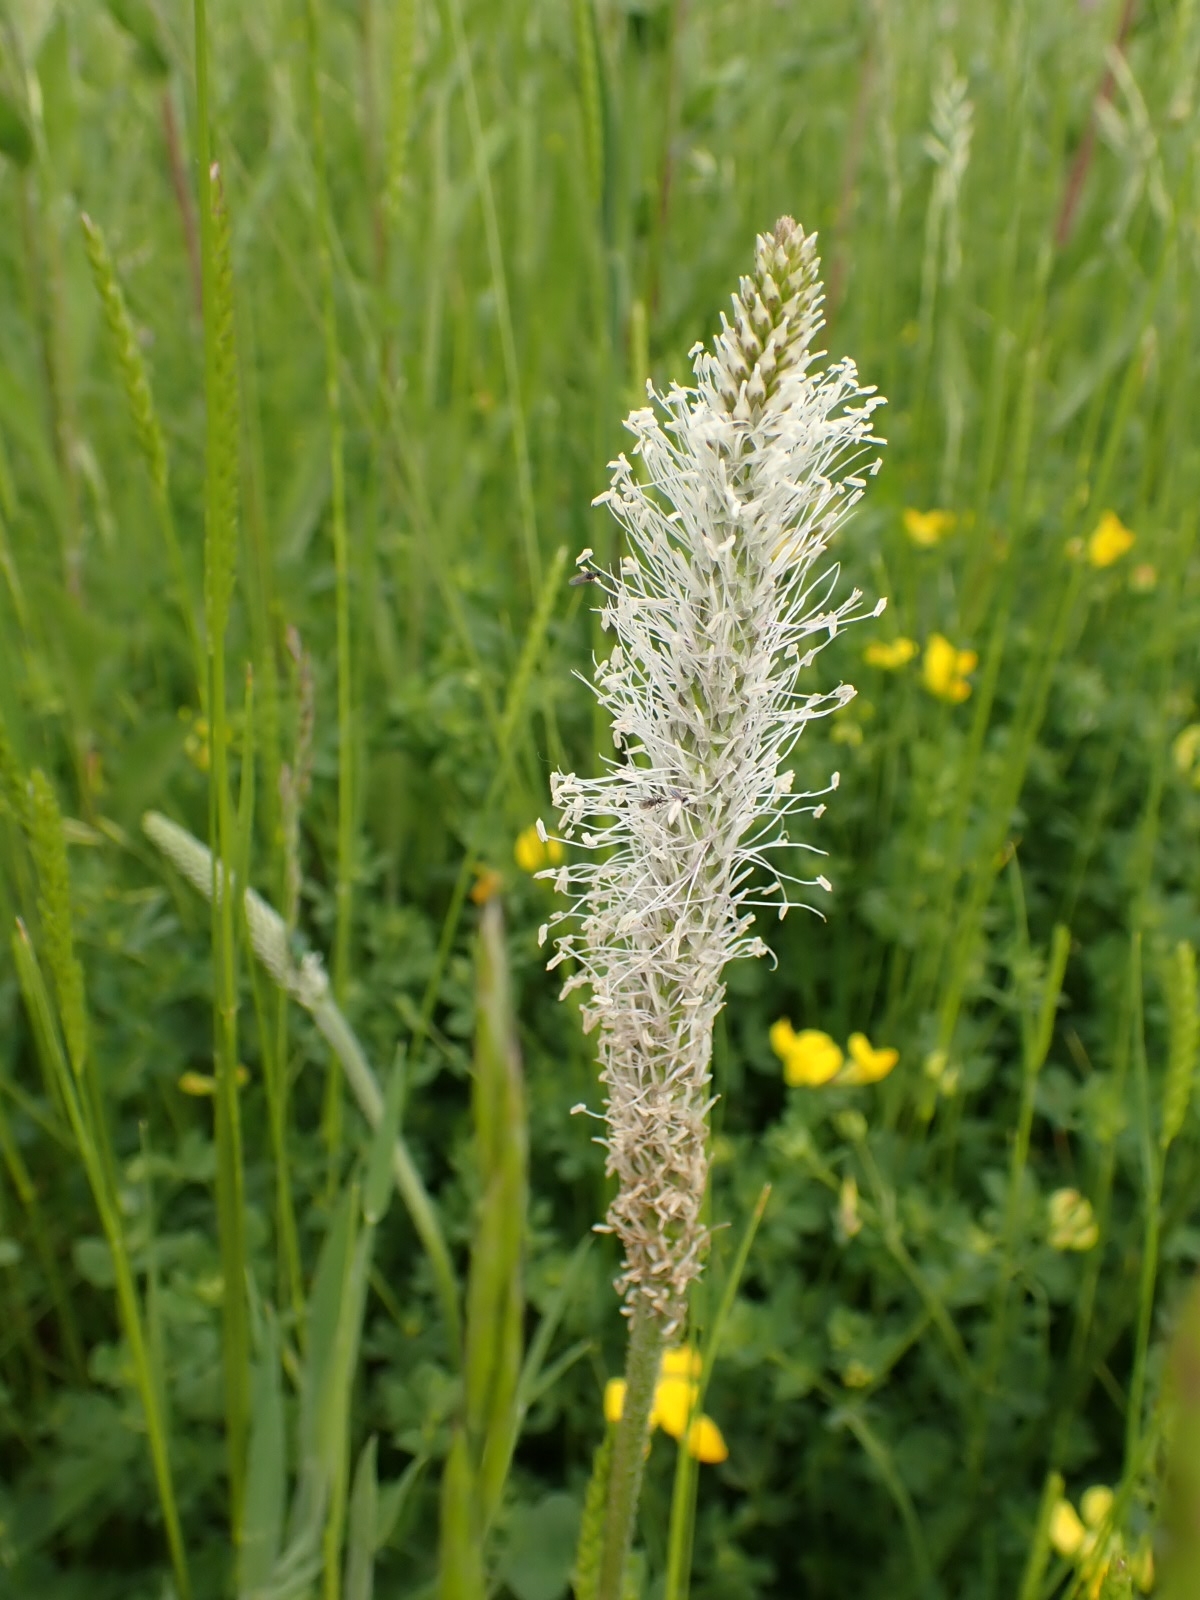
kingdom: Plantae
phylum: Tracheophyta
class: Magnoliopsida
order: Lamiales
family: Plantaginaceae
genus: Plantago
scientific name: Plantago media
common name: Hoary plantain
